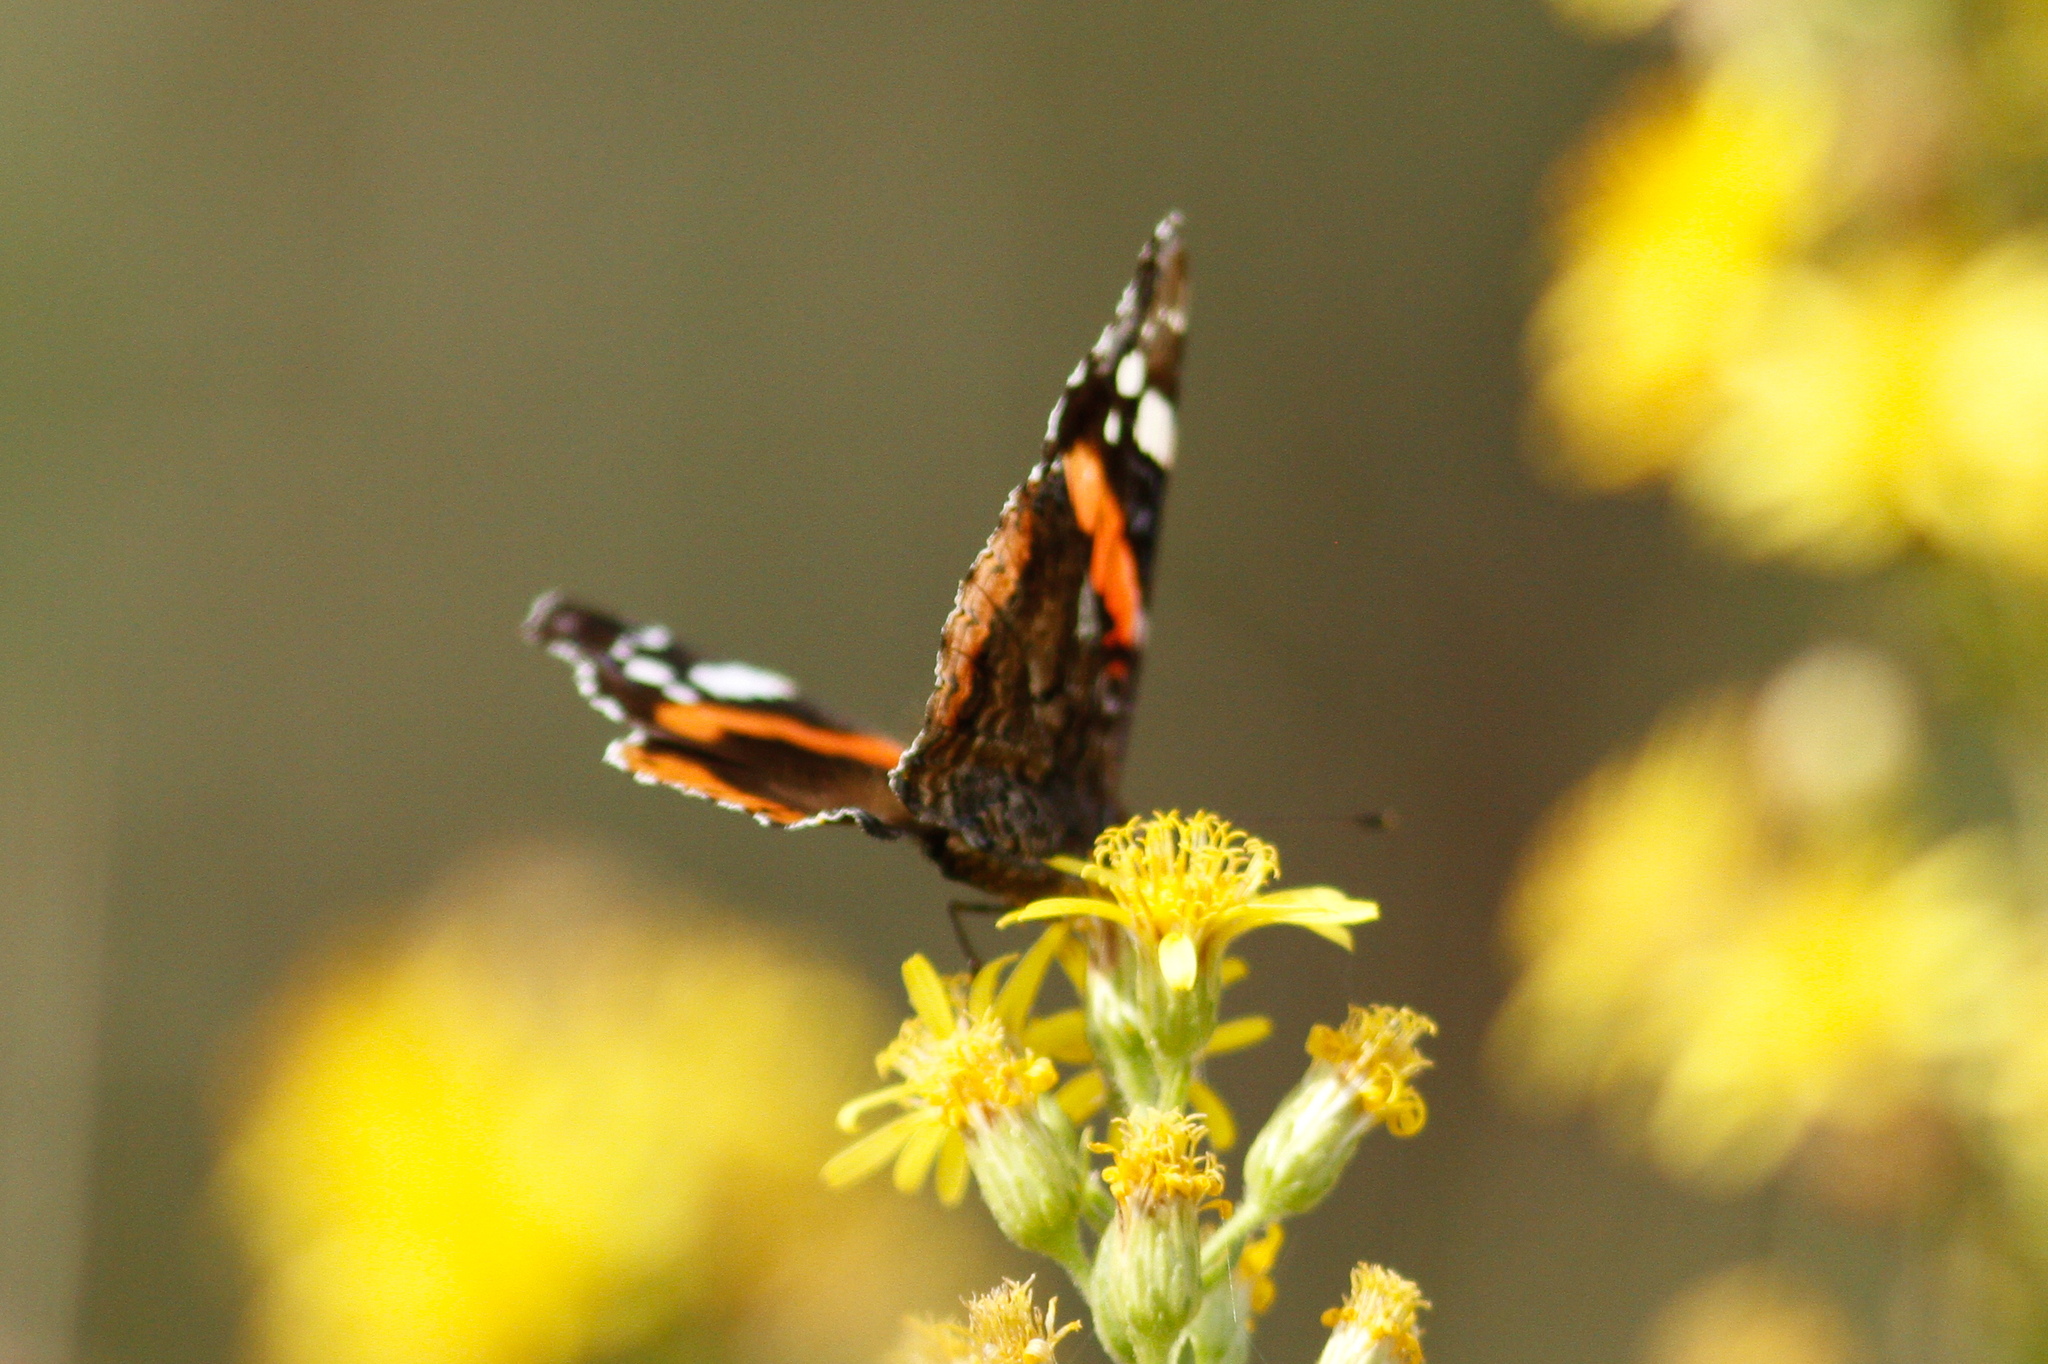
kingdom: Animalia
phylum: Arthropoda
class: Insecta
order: Lepidoptera
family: Nymphalidae
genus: Vanessa
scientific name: Vanessa atalanta
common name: Red admiral
